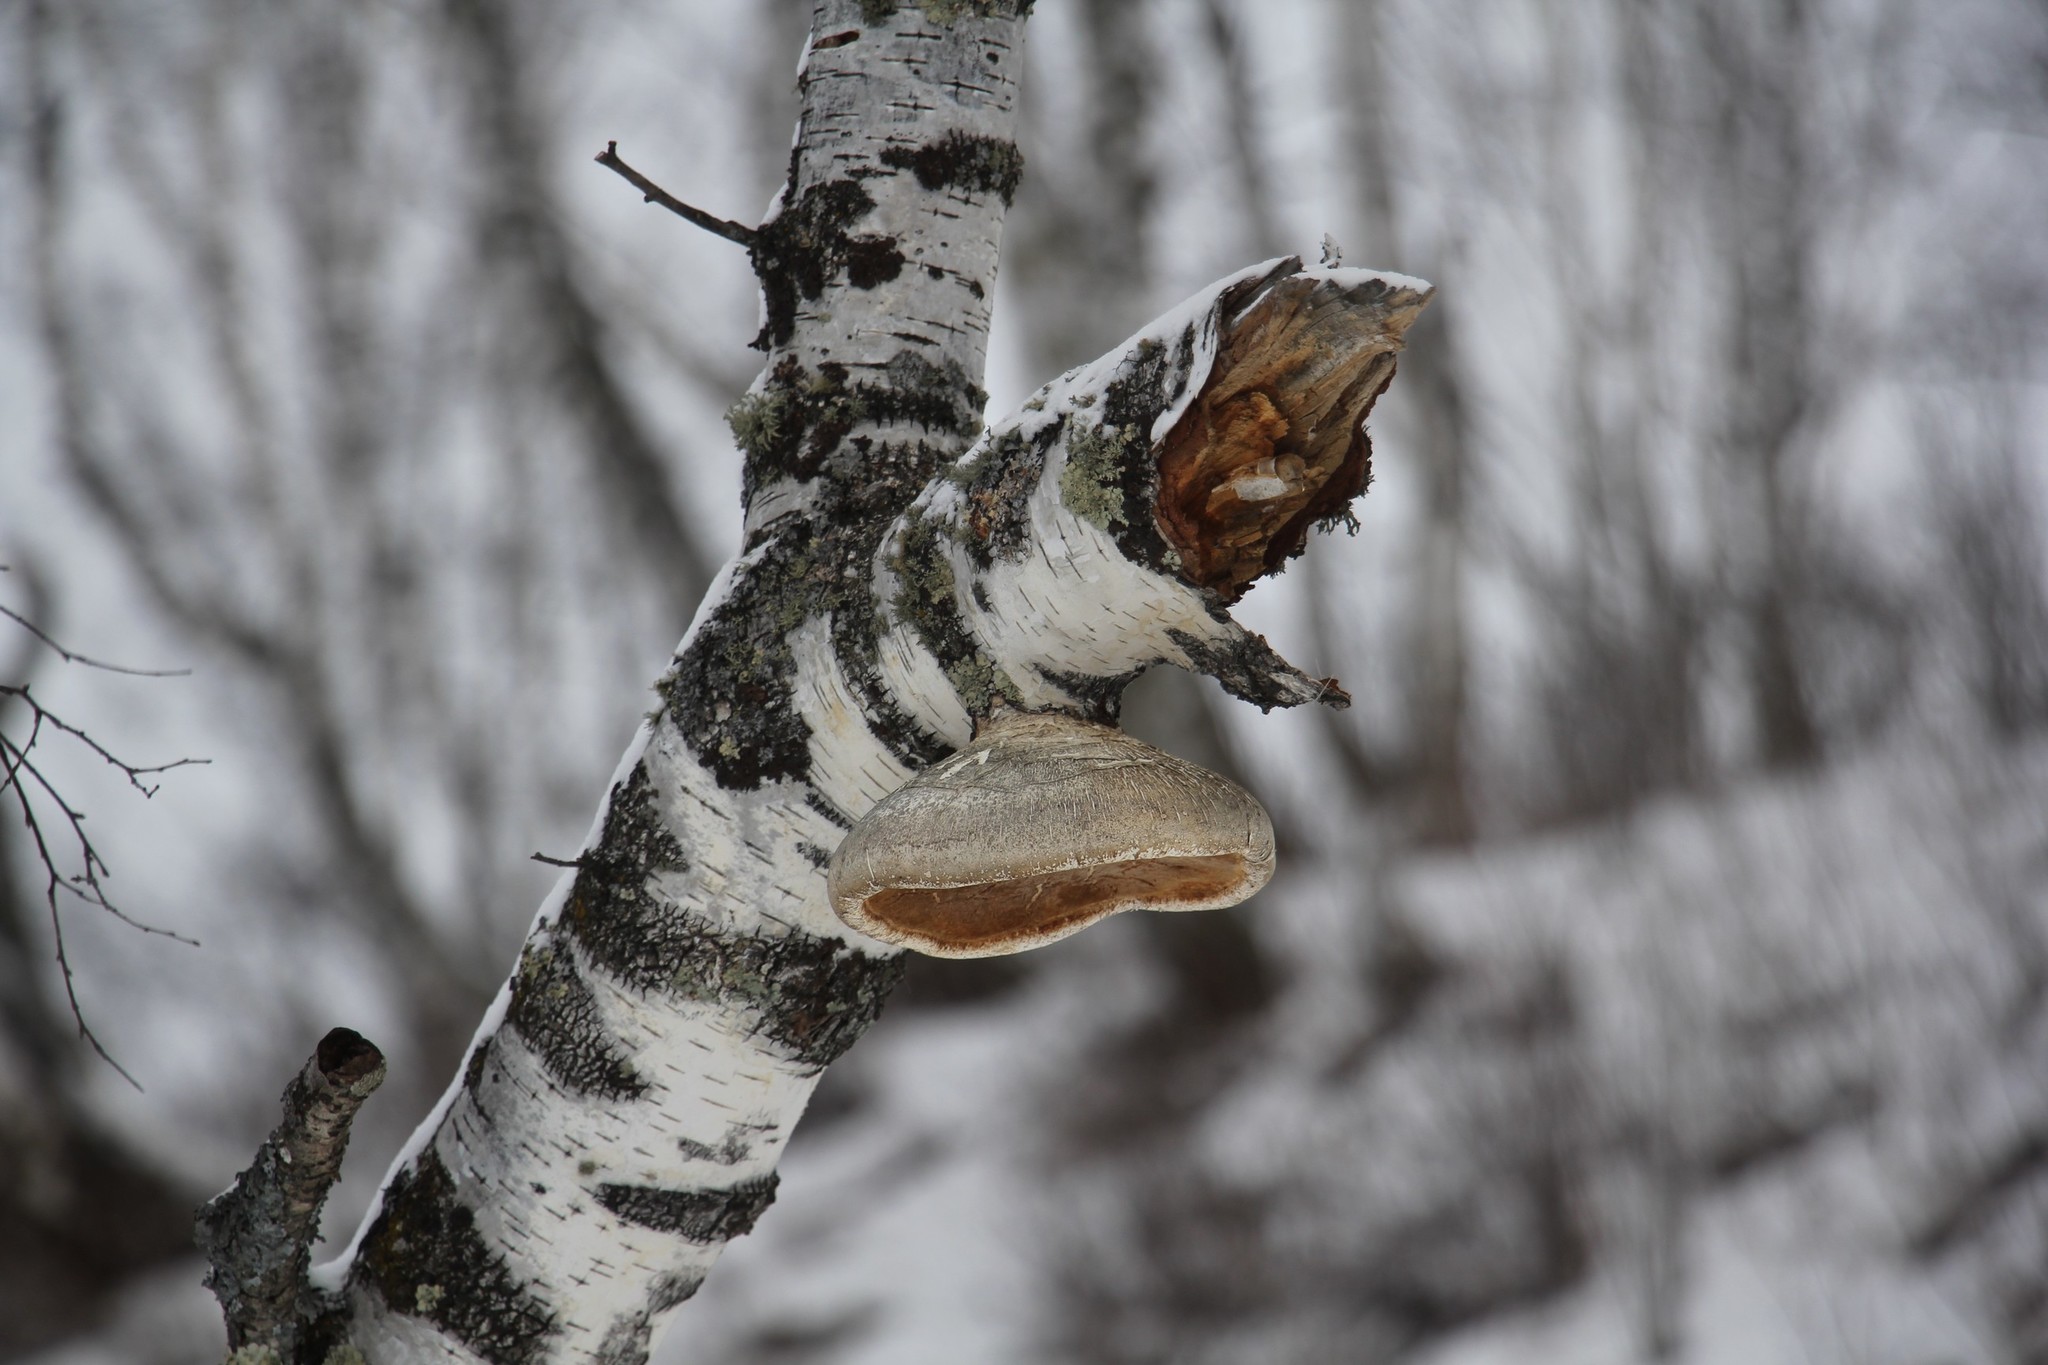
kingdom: Fungi
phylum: Basidiomycota
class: Agaricomycetes
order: Polyporales
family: Fomitopsidaceae
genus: Fomitopsis
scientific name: Fomitopsis betulina
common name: Birch polypore
